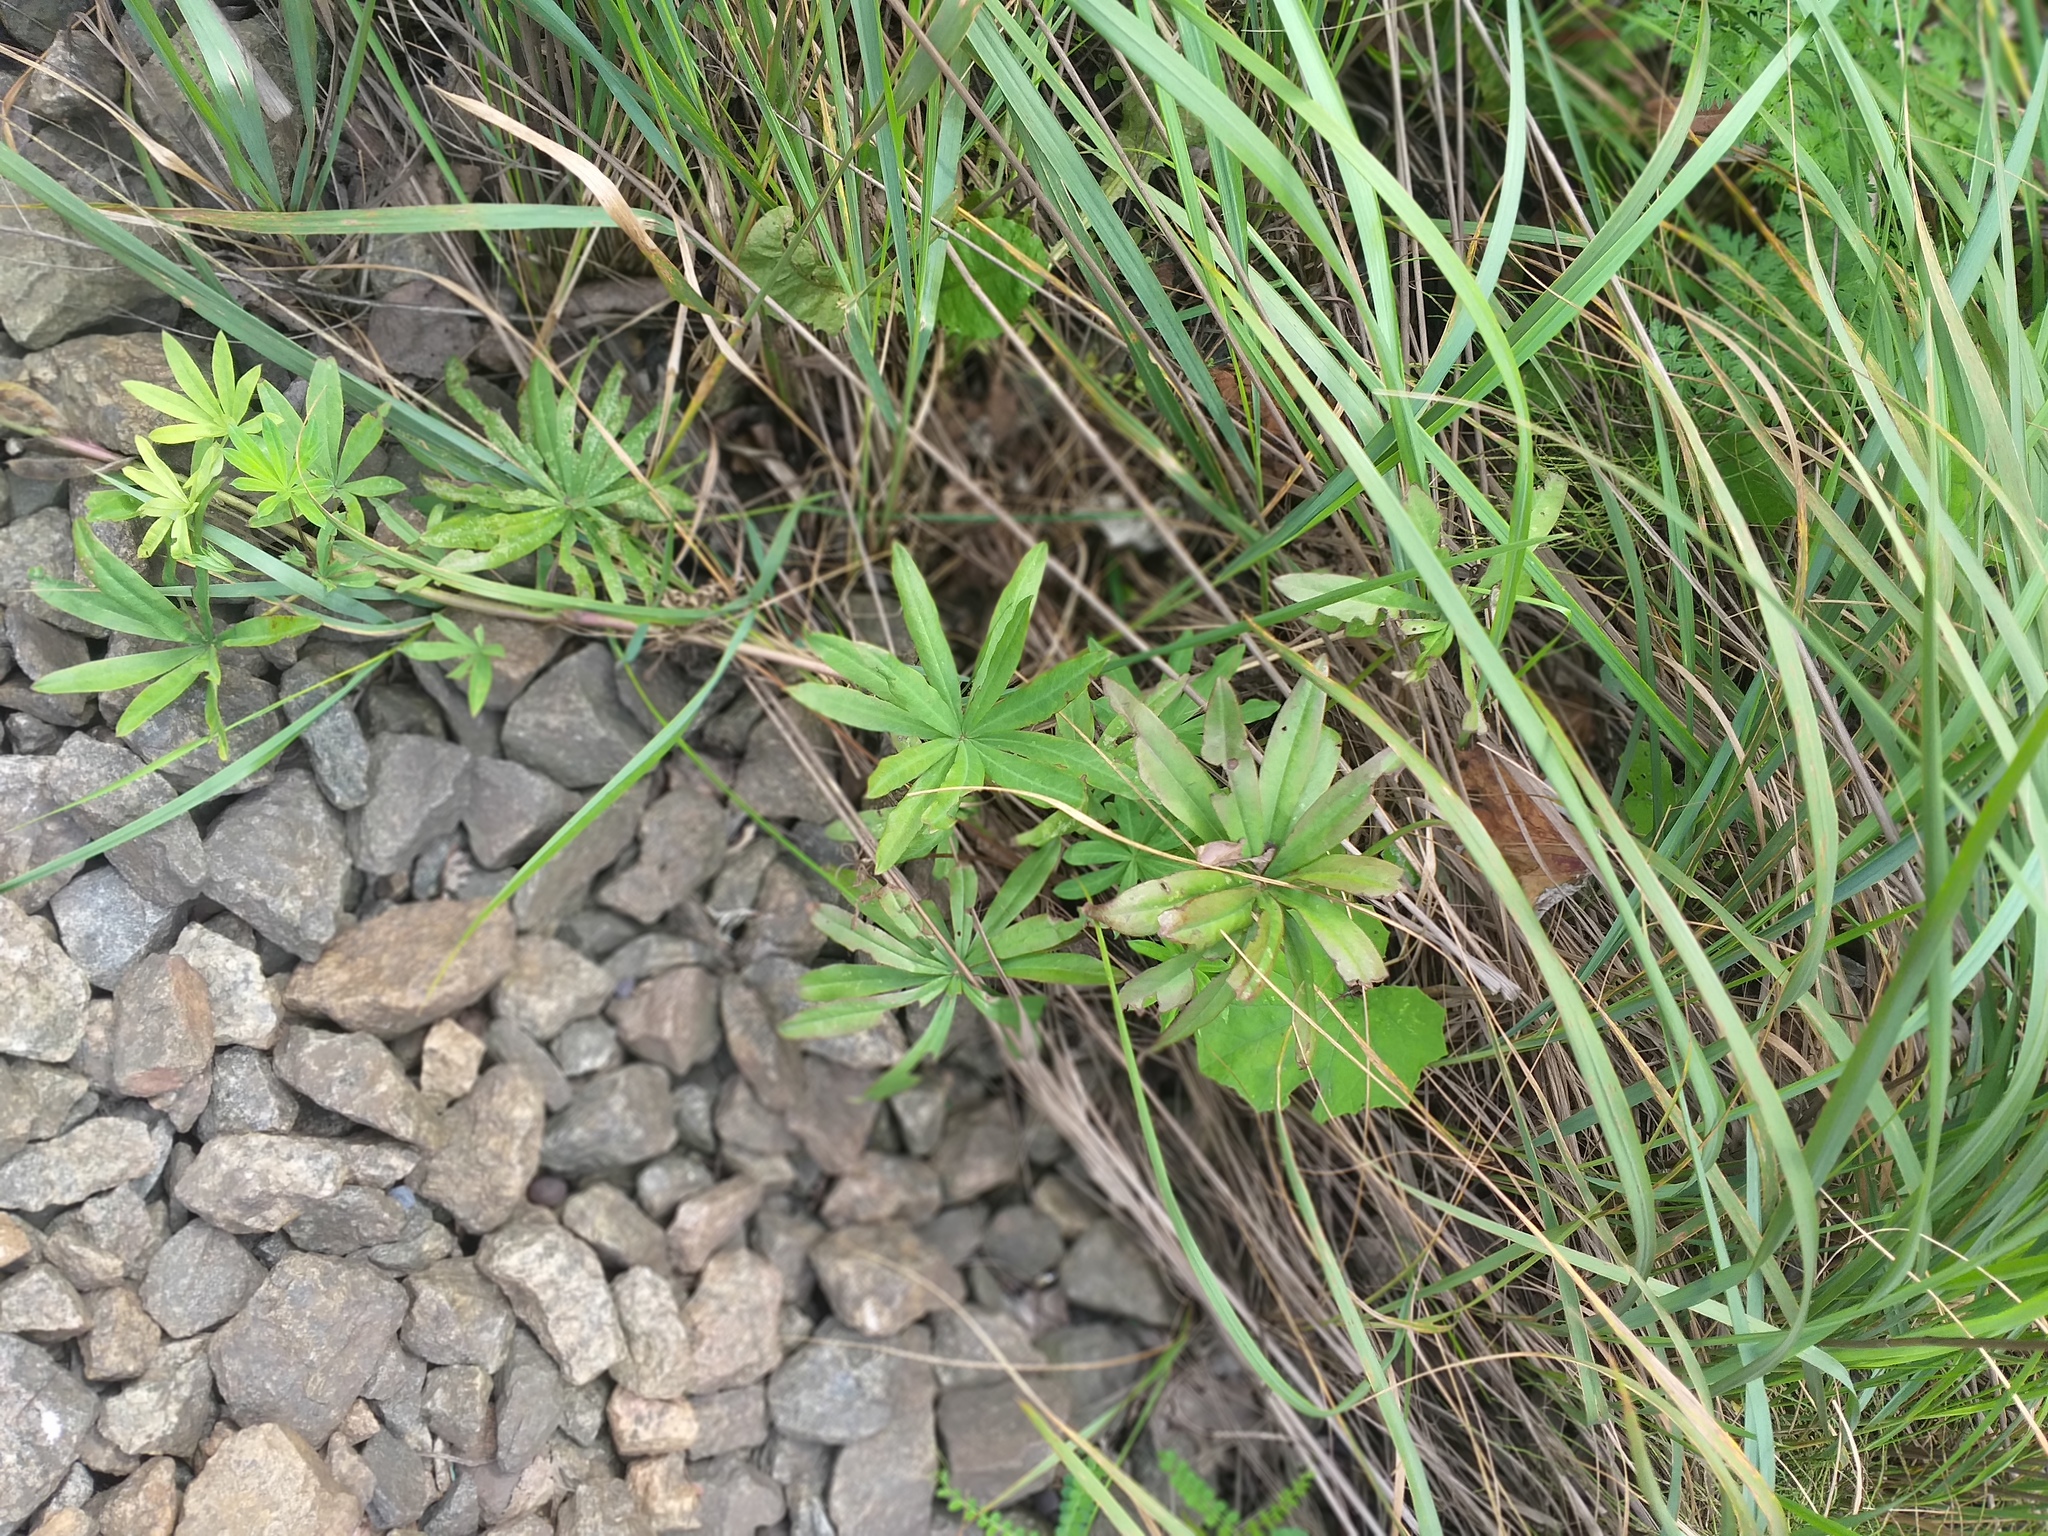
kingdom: Plantae
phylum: Tracheophyta
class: Magnoliopsida
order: Fabales
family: Fabaceae
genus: Lupinus
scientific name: Lupinus polyphyllus
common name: Garden lupin
